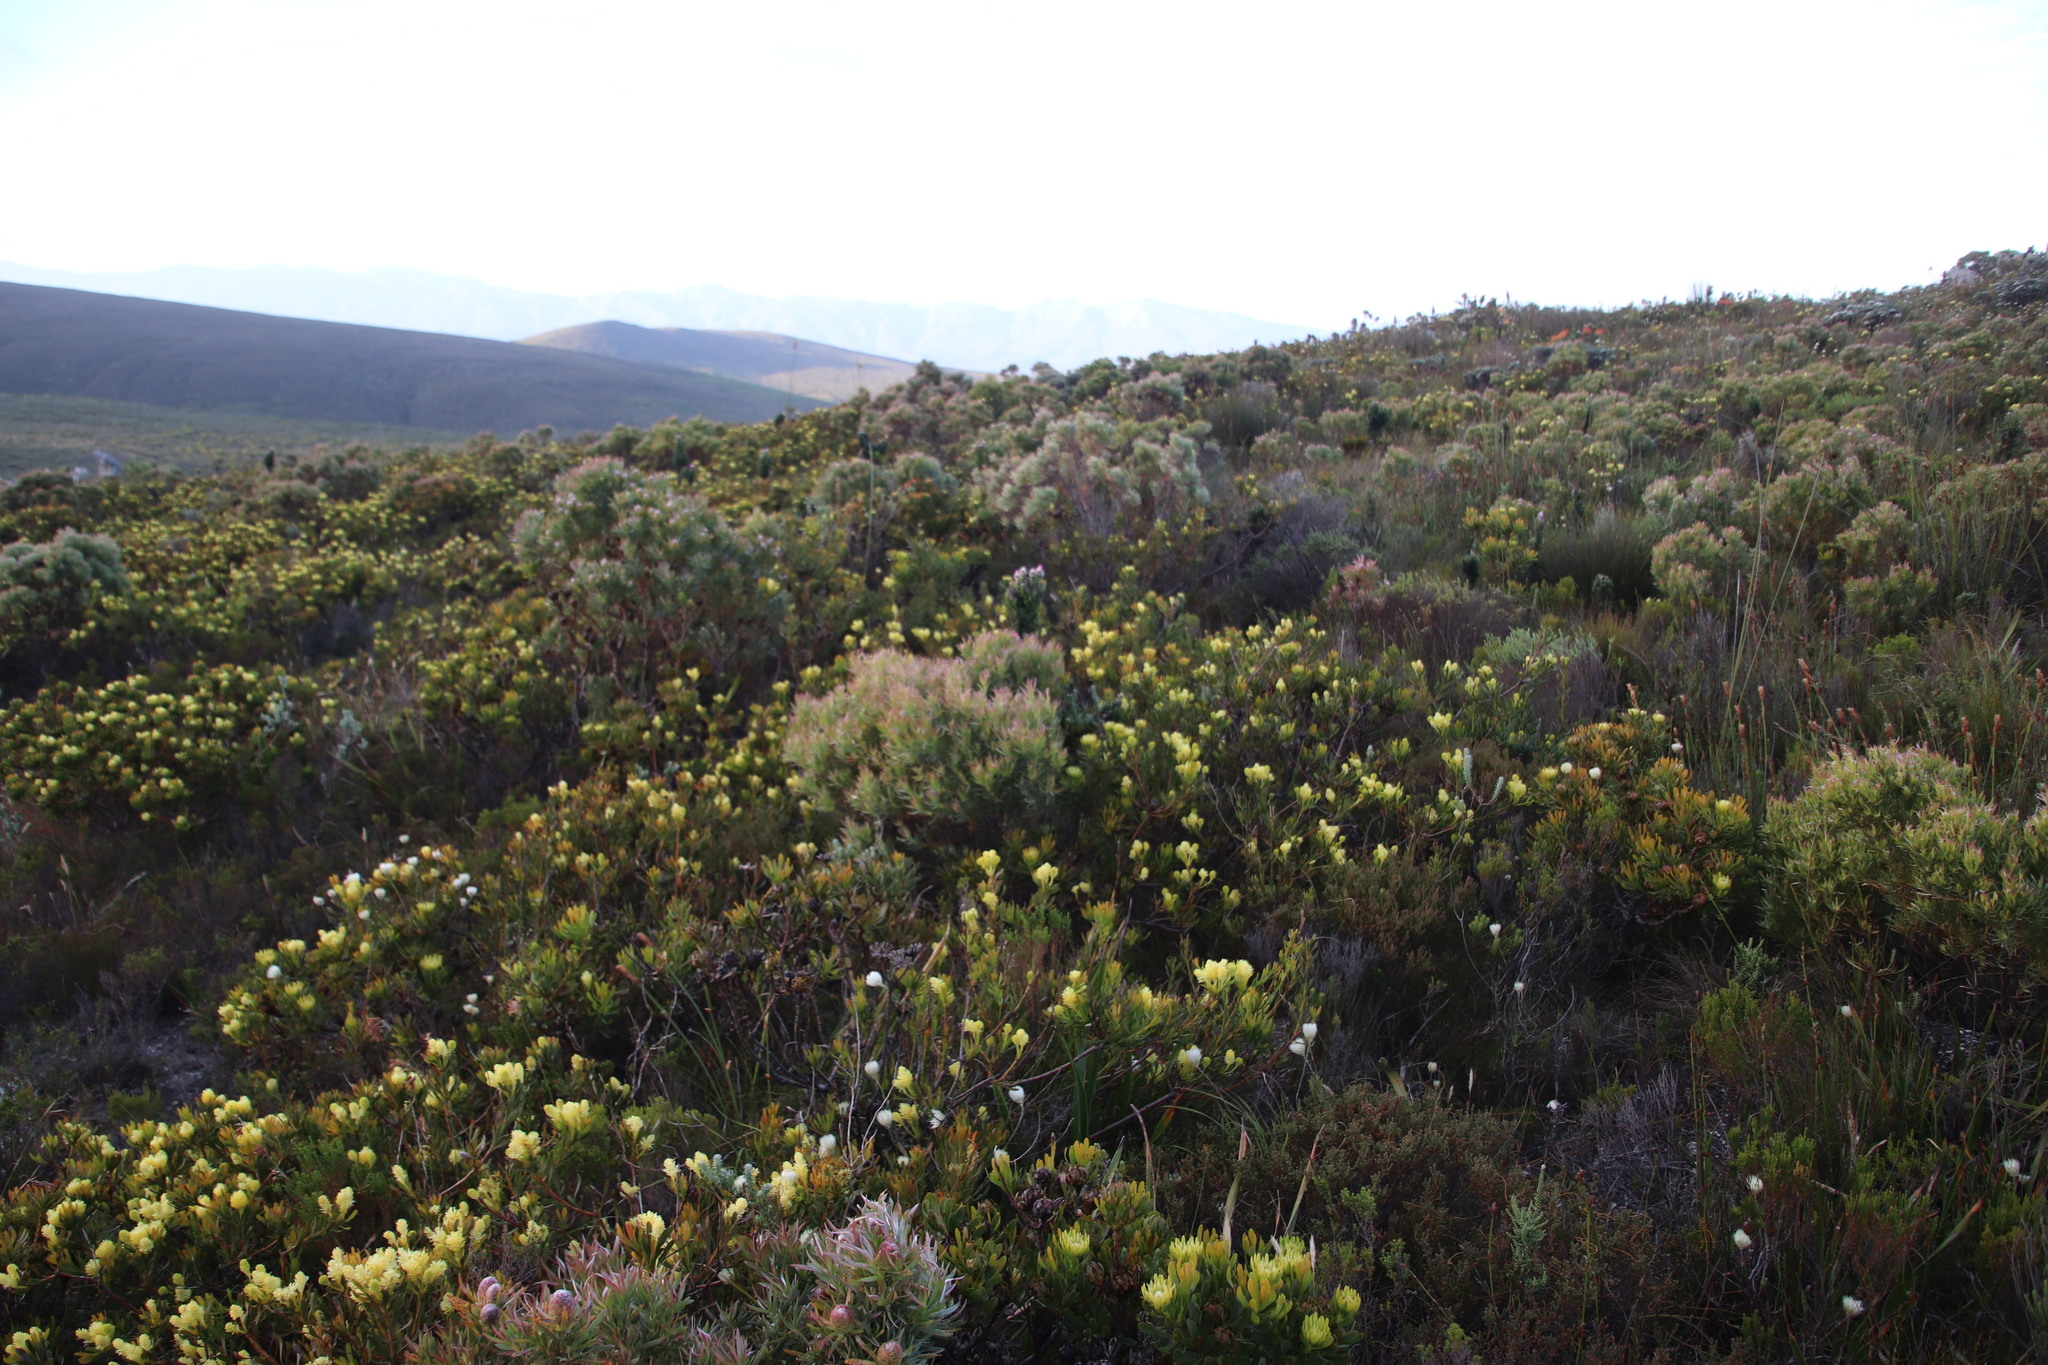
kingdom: Plantae
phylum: Tracheophyta
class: Magnoliopsida
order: Proteales
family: Proteaceae
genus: Leucadendron
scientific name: Leucadendron xanthoconus
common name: Sickle-leaf conebush
